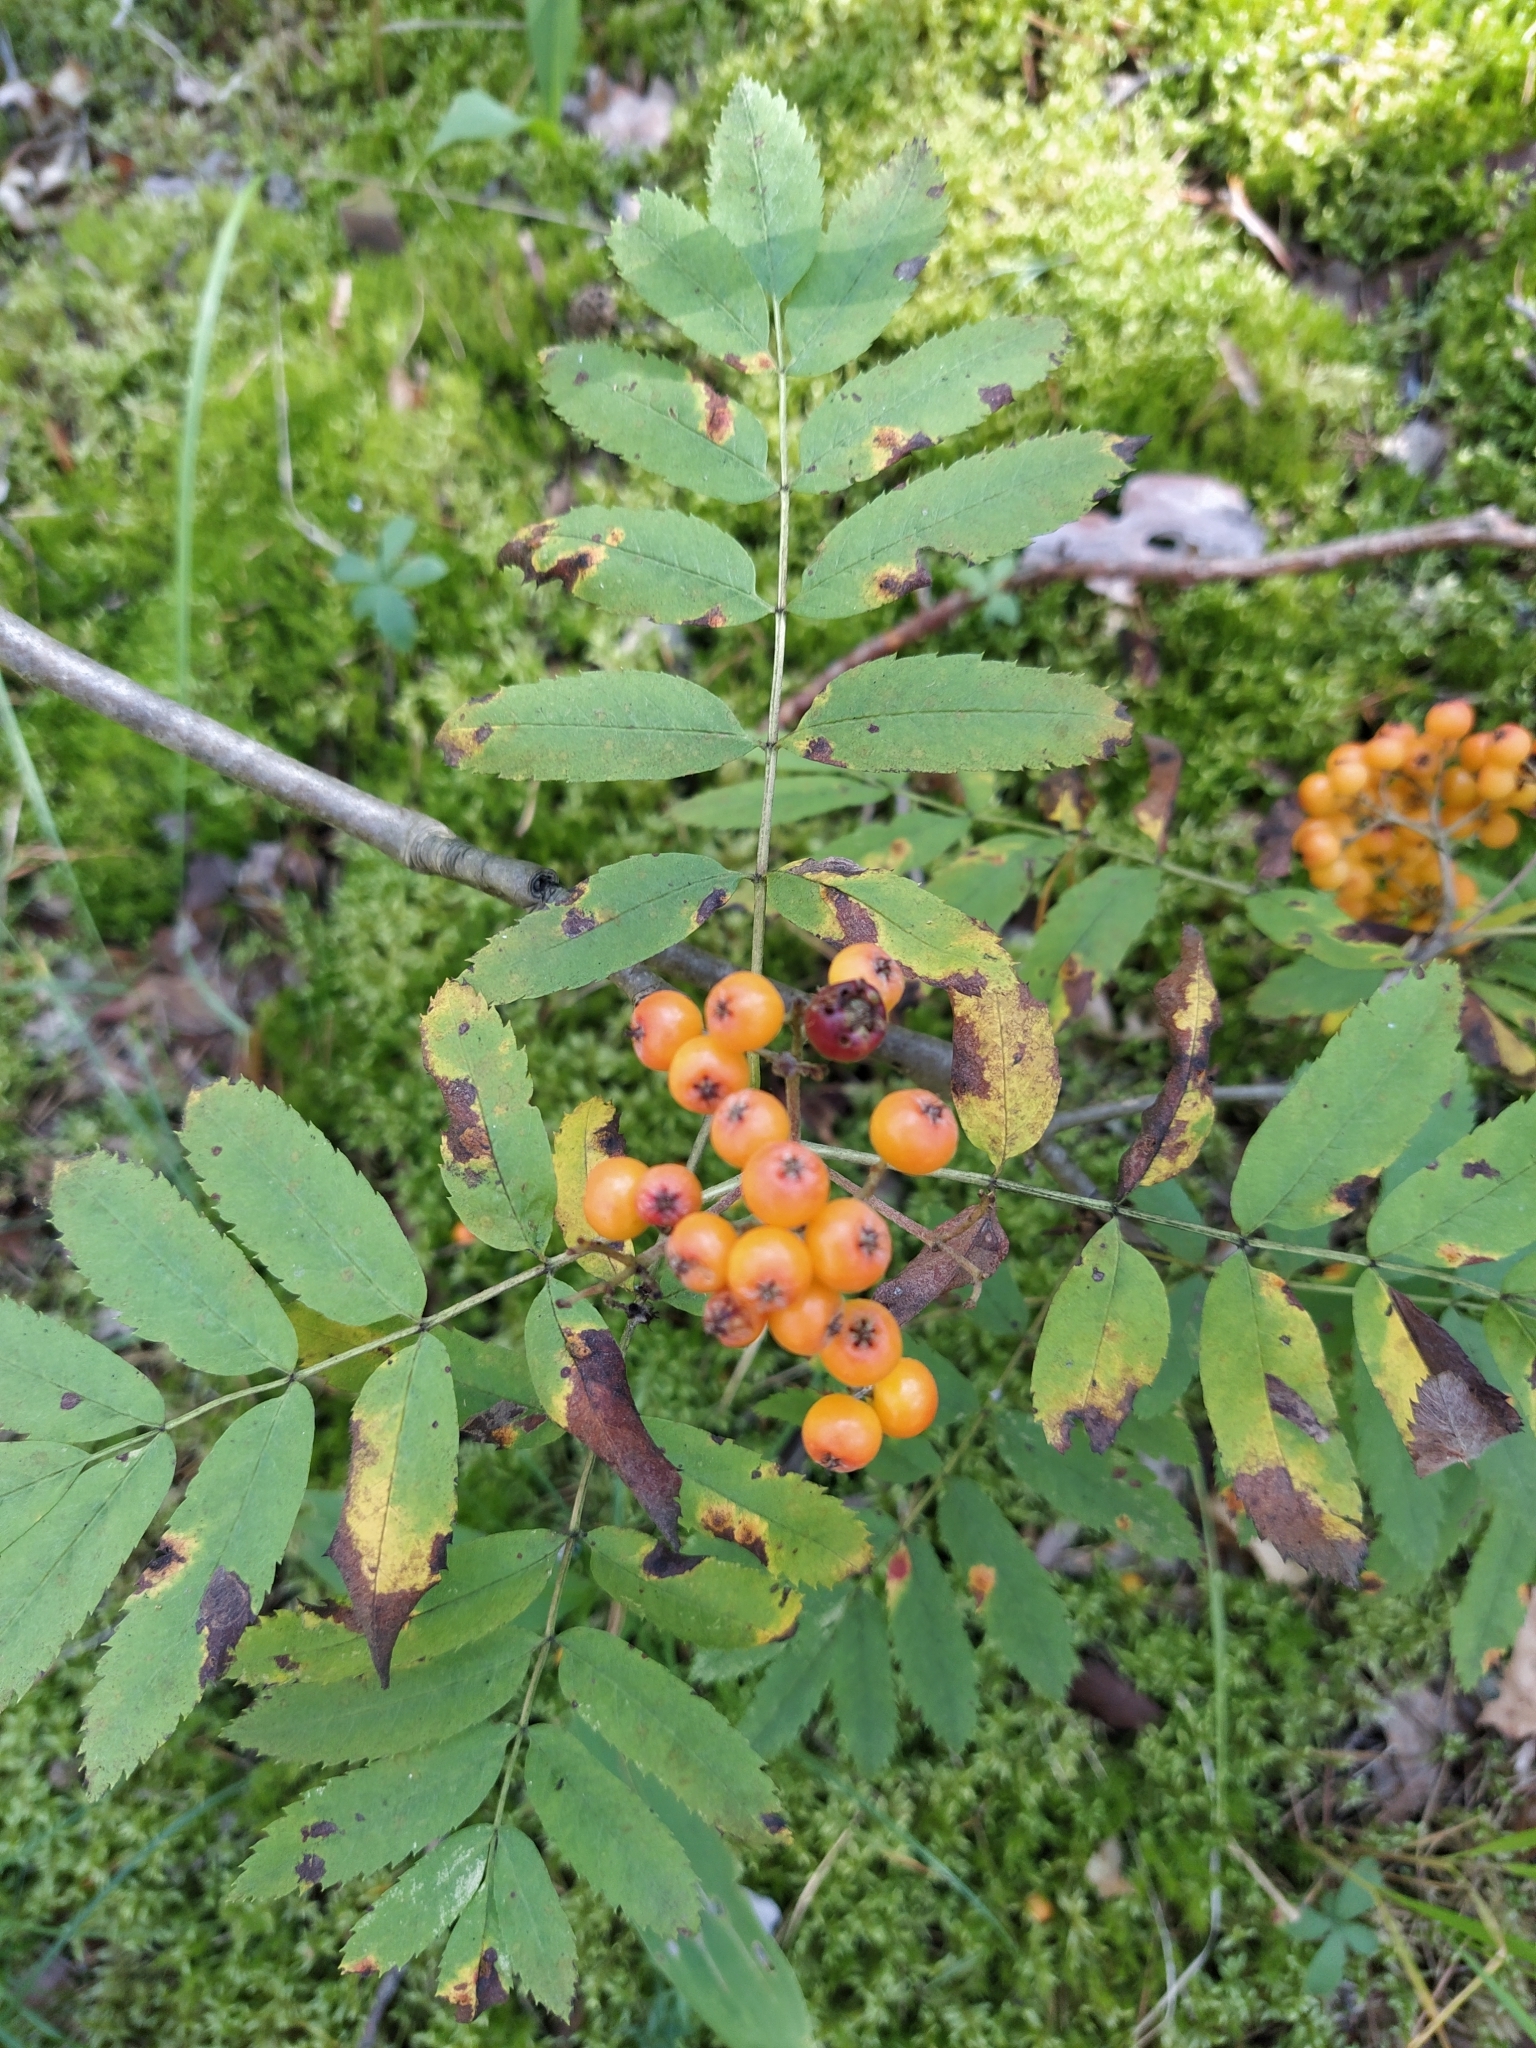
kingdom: Plantae
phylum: Tracheophyta
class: Magnoliopsida
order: Rosales
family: Rosaceae
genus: Sorbus
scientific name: Sorbus aucuparia
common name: Rowan
